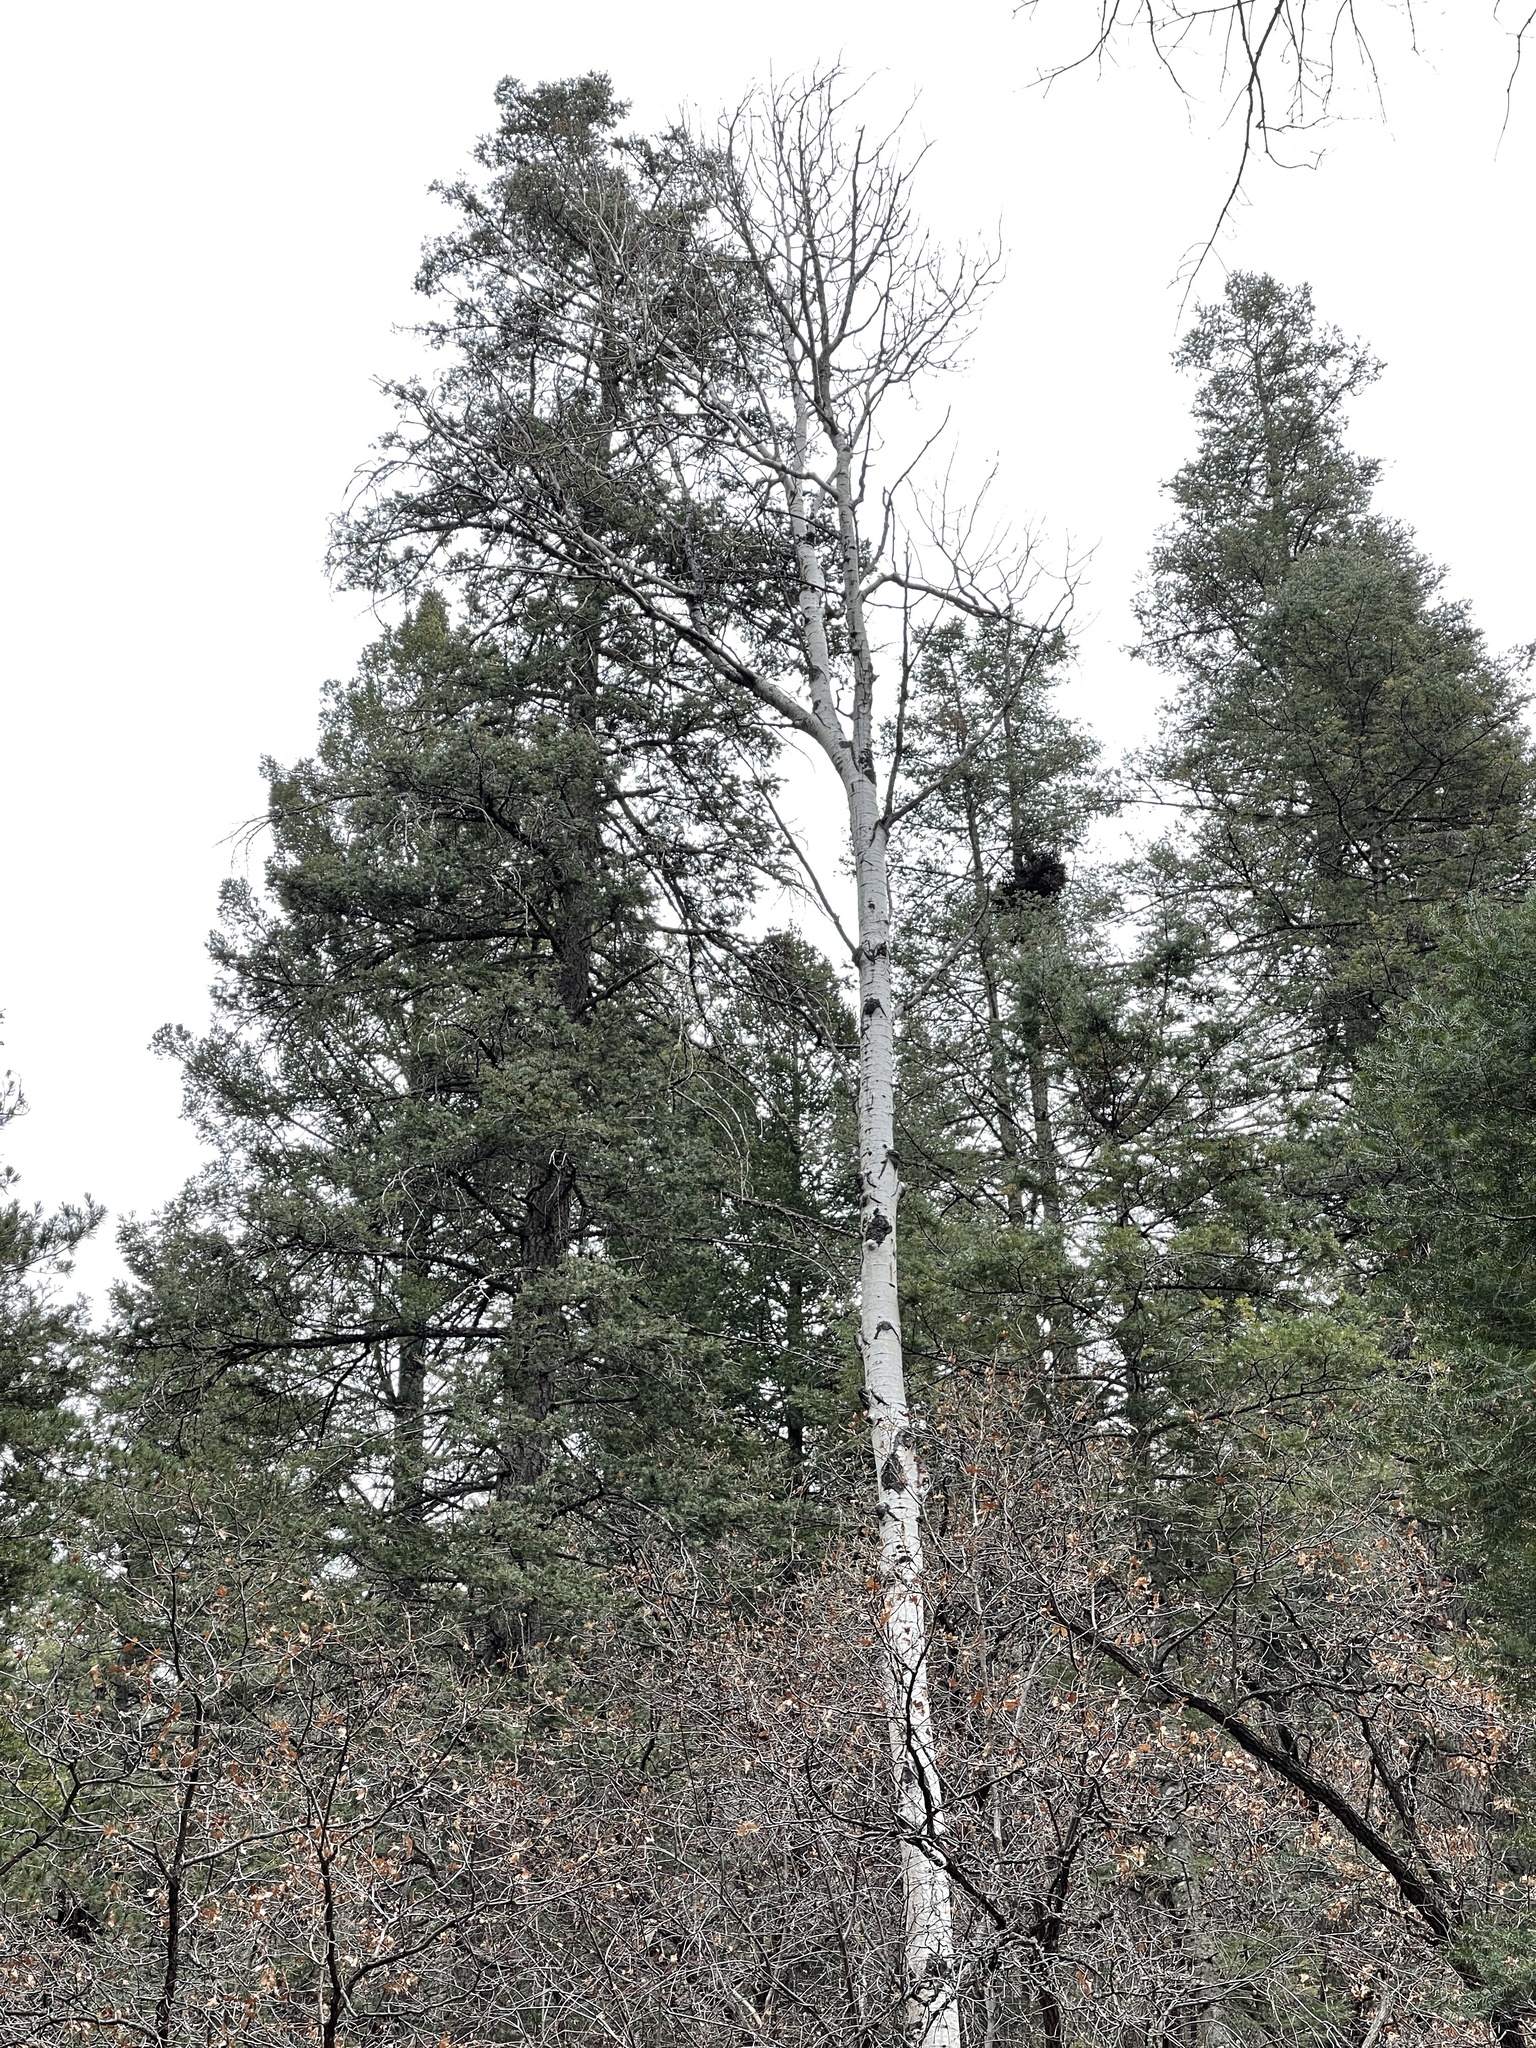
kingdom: Plantae
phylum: Tracheophyta
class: Magnoliopsida
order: Malpighiales
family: Salicaceae
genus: Populus
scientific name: Populus tremuloides
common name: Quaking aspen
